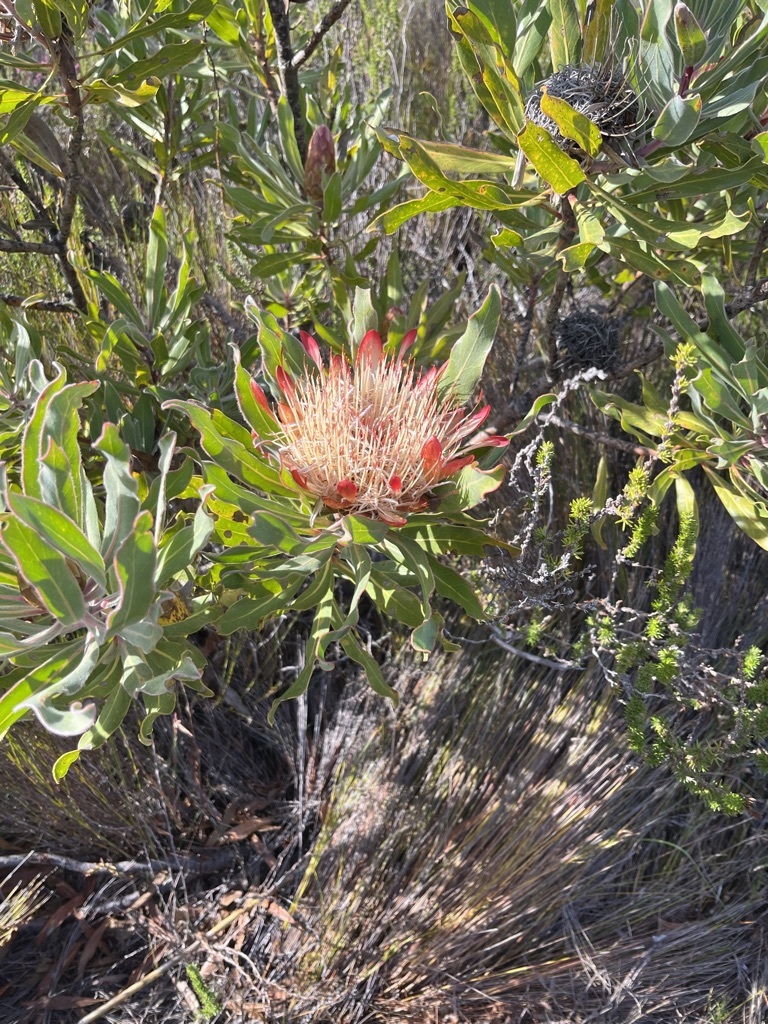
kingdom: Plantae
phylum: Tracheophyta
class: Magnoliopsida
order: Proteales
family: Proteaceae
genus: Protea
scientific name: Protea susannae
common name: Foetid-leaf sugarbush
